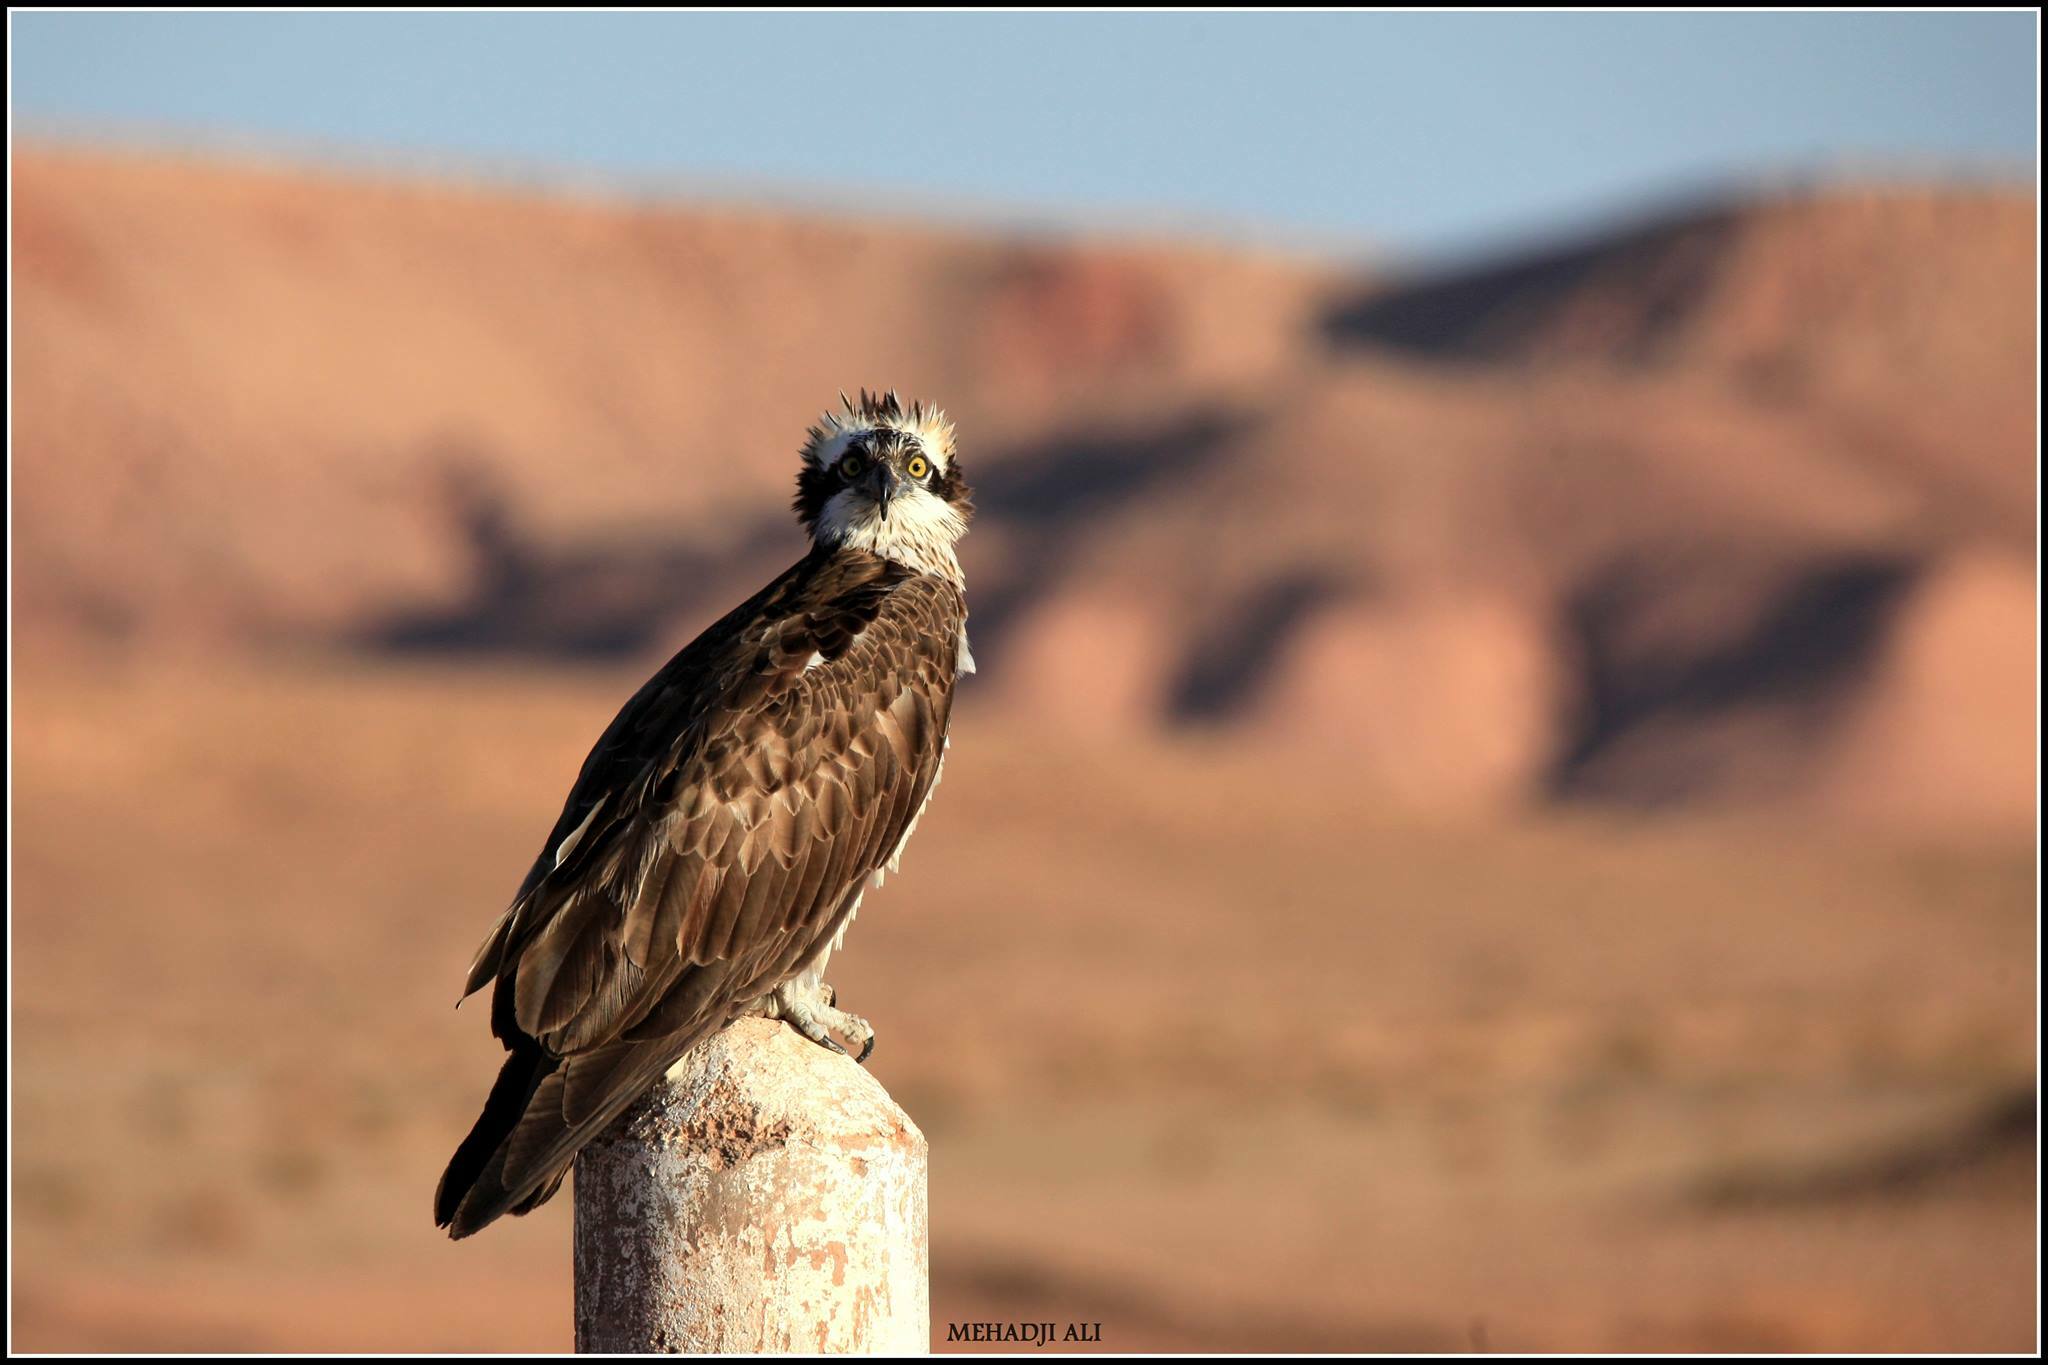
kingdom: Animalia
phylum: Chordata
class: Aves
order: Accipitriformes
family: Pandionidae
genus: Pandion
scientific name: Pandion haliaetus
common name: Osprey
